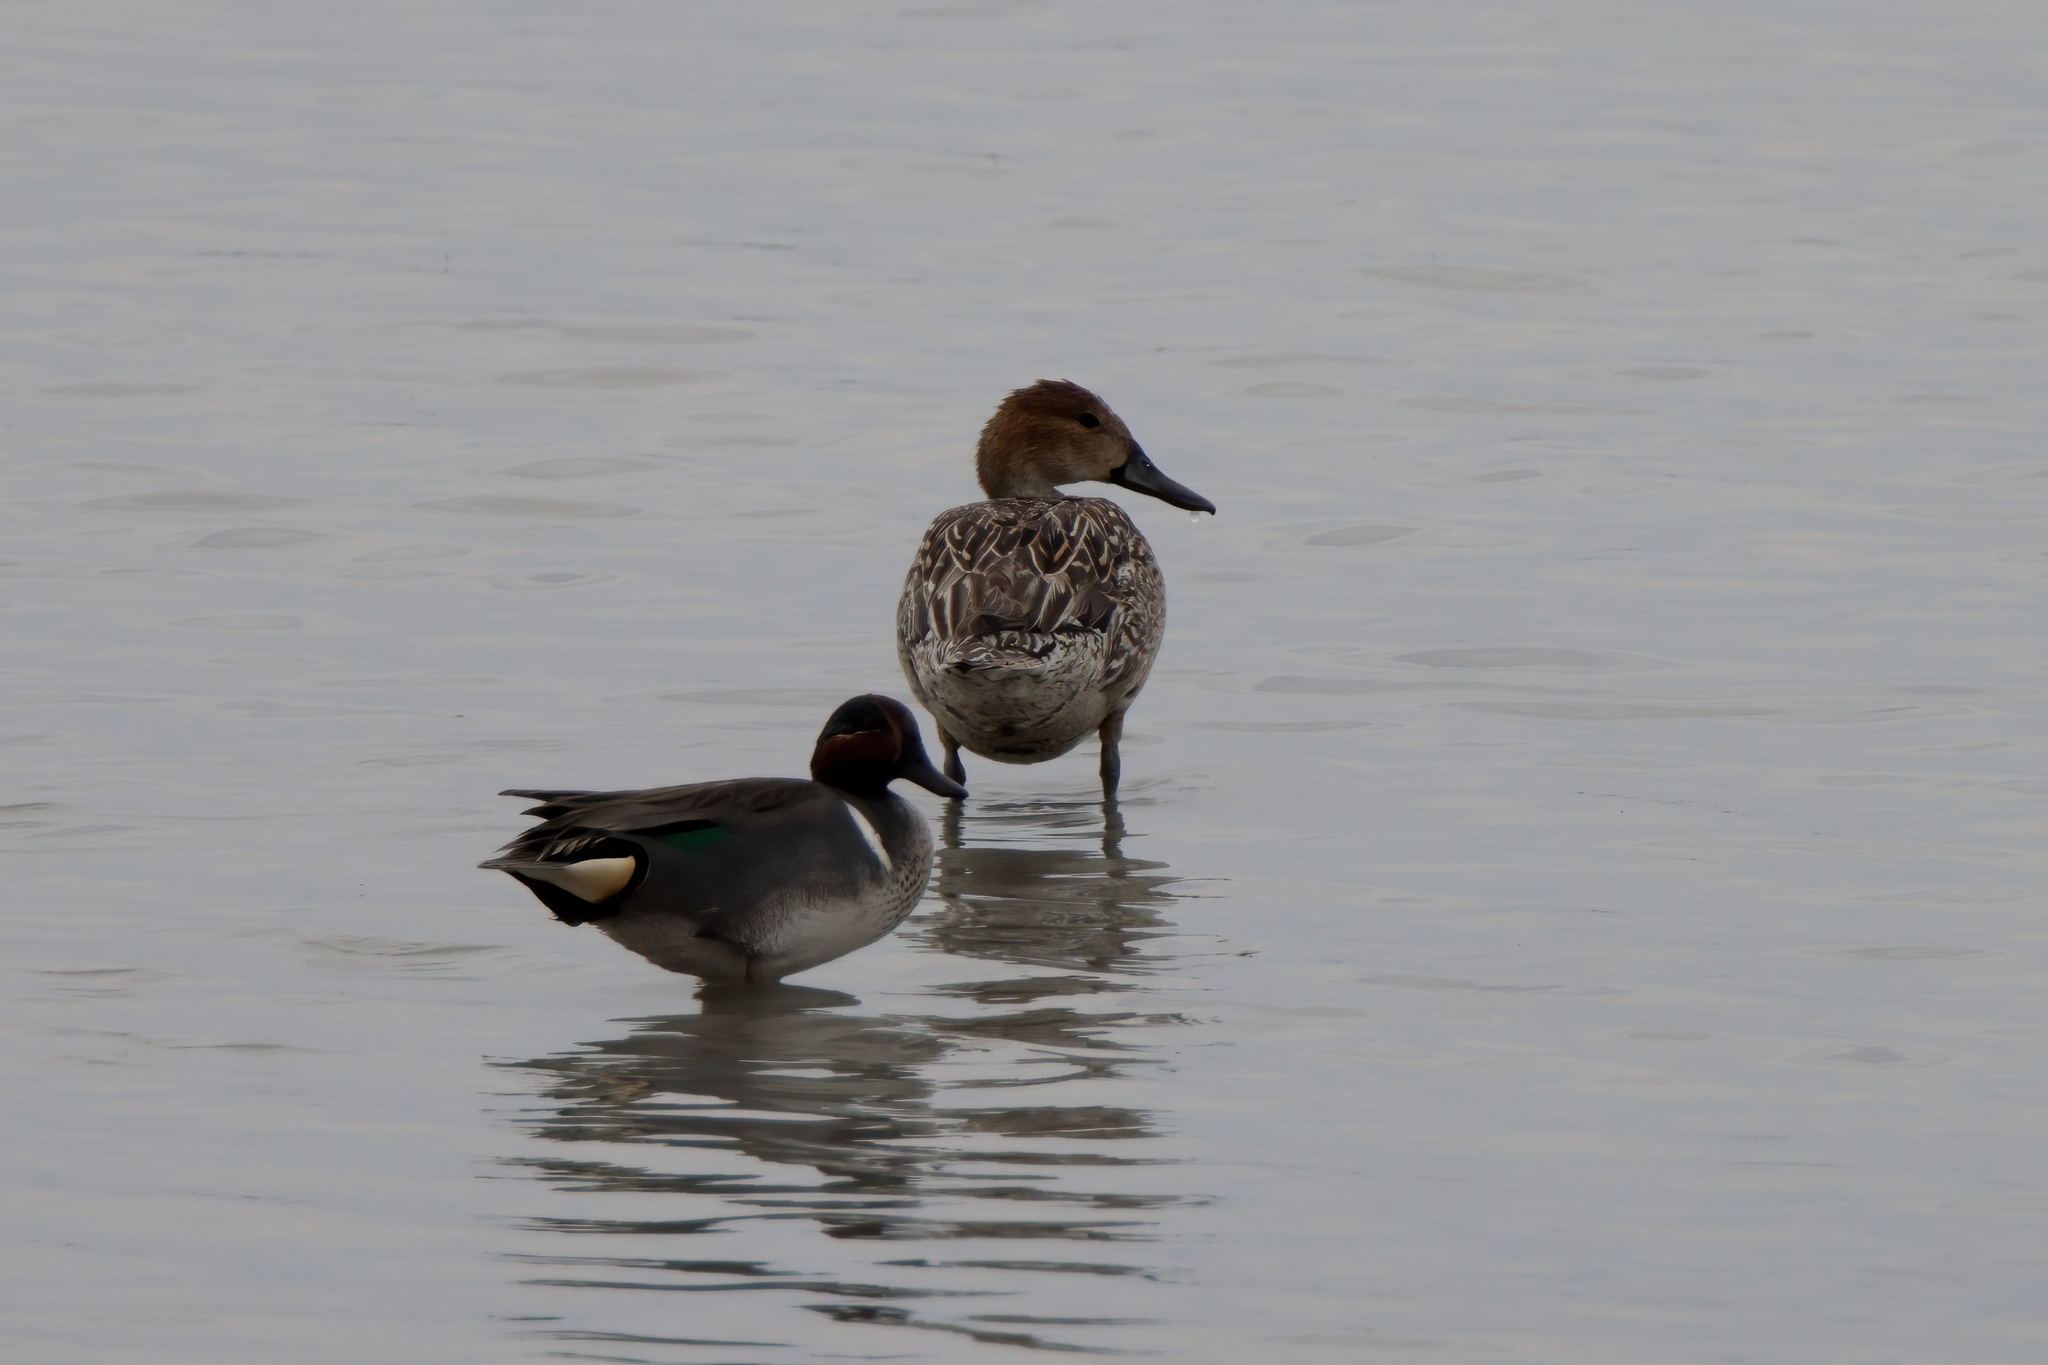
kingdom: Animalia
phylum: Chordata
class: Aves
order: Anseriformes
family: Anatidae
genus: Anas
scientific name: Anas crecca
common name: Eurasian teal
